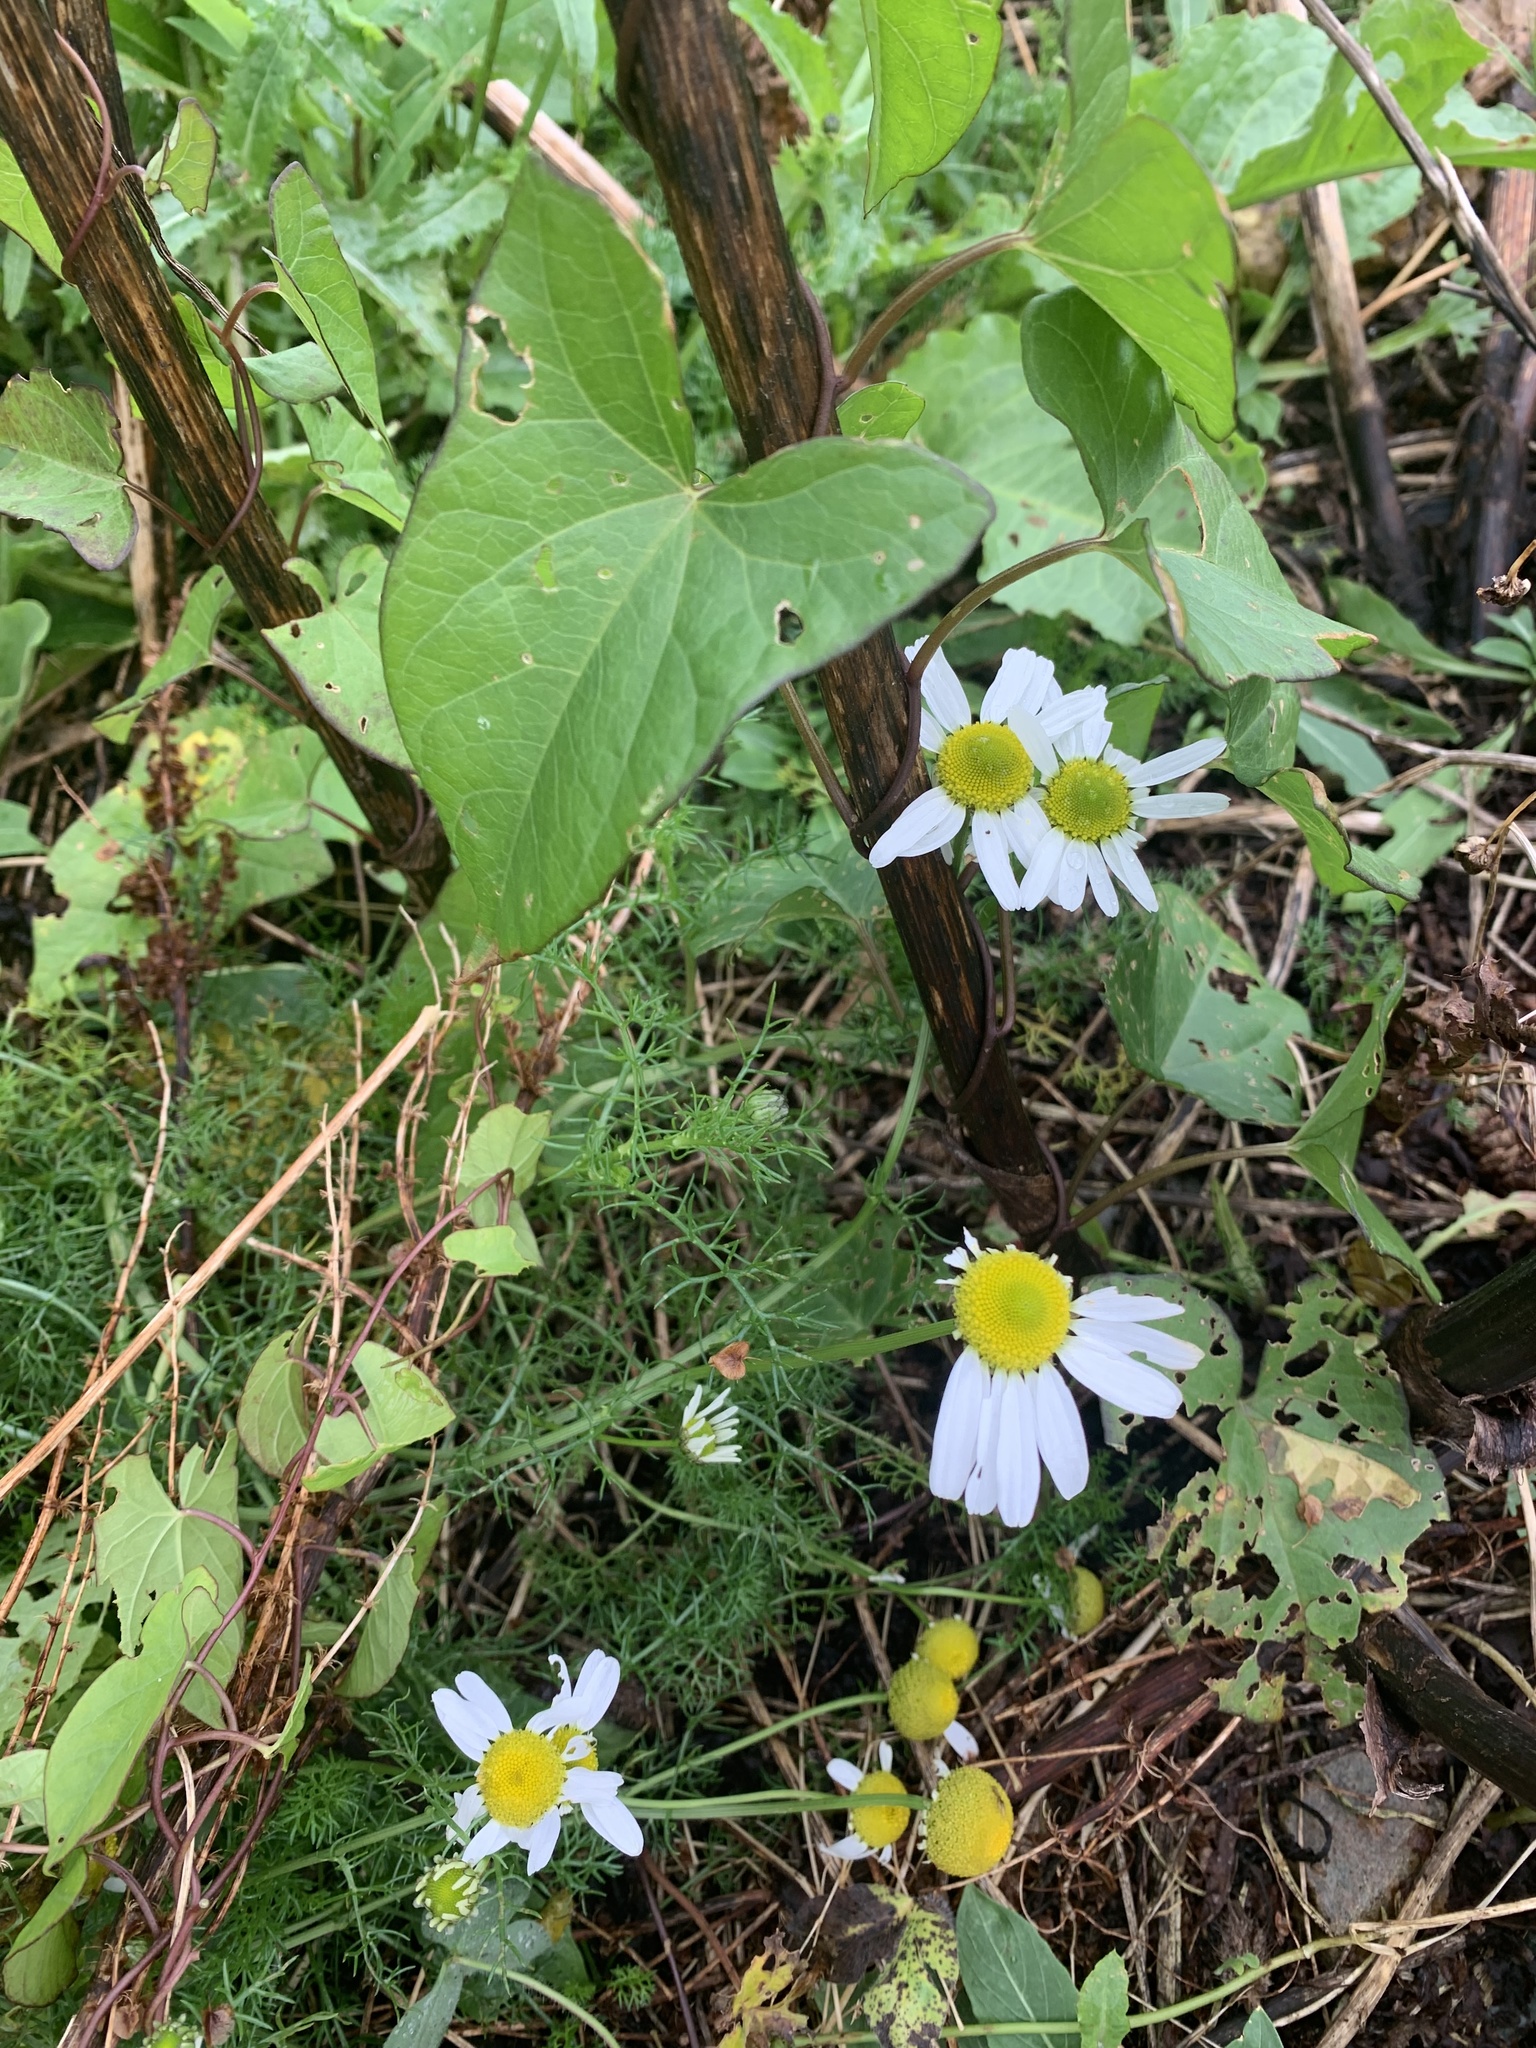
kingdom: Plantae
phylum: Tracheophyta
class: Magnoliopsida
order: Asterales
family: Asteraceae
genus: Tripleurospermum
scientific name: Tripleurospermum inodorum
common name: Scentless mayweed
